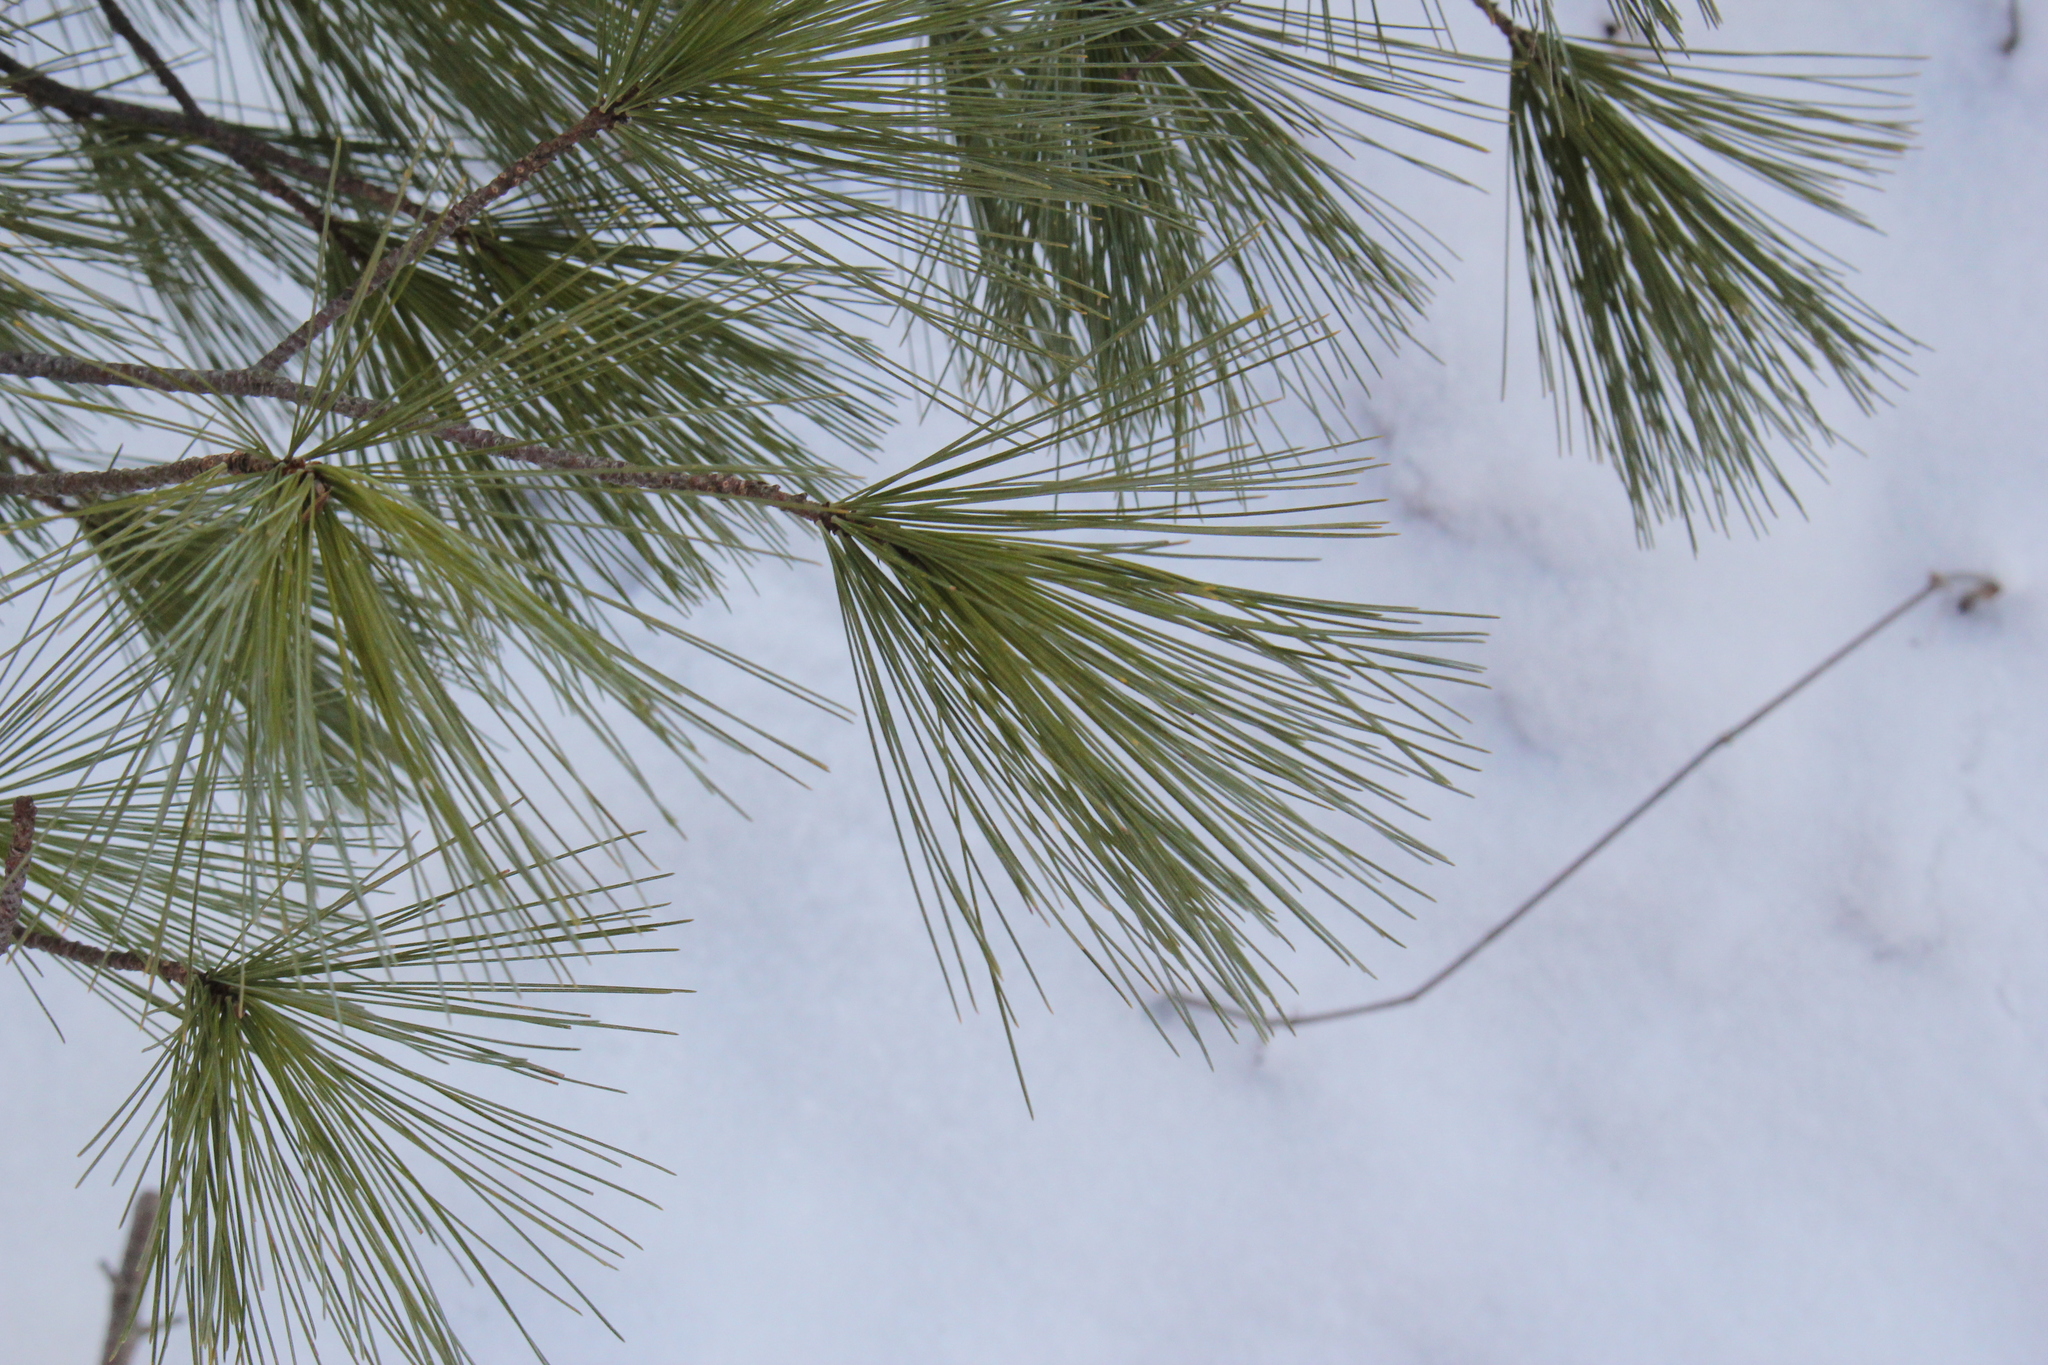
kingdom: Plantae
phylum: Tracheophyta
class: Pinopsida
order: Pinales
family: Pinaceae
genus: Pinus
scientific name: Pinus strobus
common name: Weymouth pine
